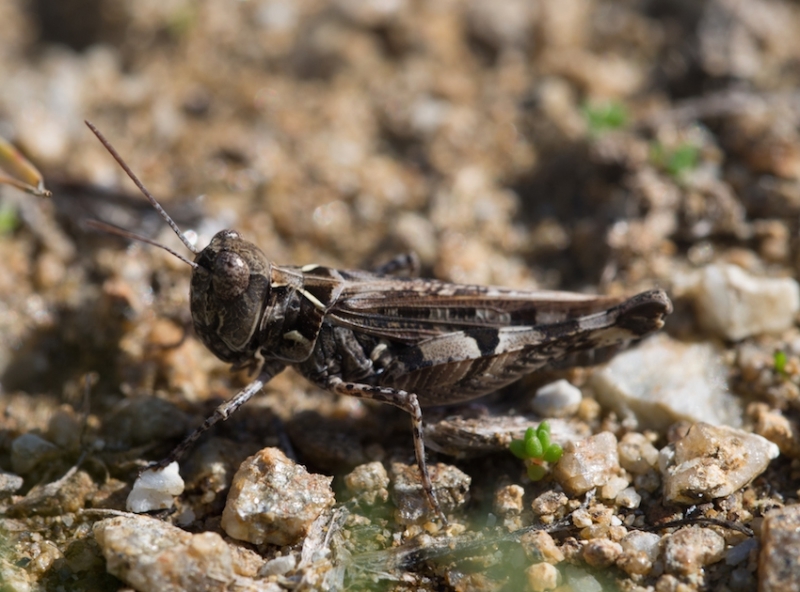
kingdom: Animalia
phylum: Arthropoda
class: Insecta
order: Orthoptera
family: Acrididae
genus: Dociostaurus
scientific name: Dociostaurus genei
